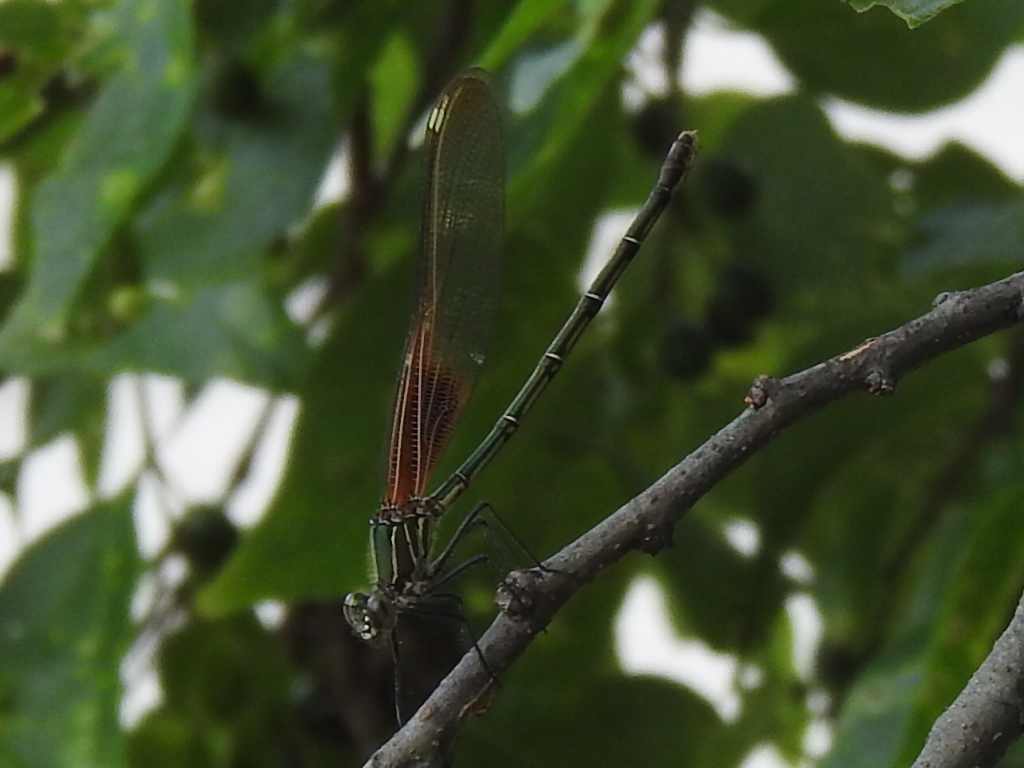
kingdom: Animalia
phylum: Arthropoda
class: Insecta
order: Odonata
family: Calopterygidae
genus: Hetaerina
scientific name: Hetaerina americana
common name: American rubyspot
